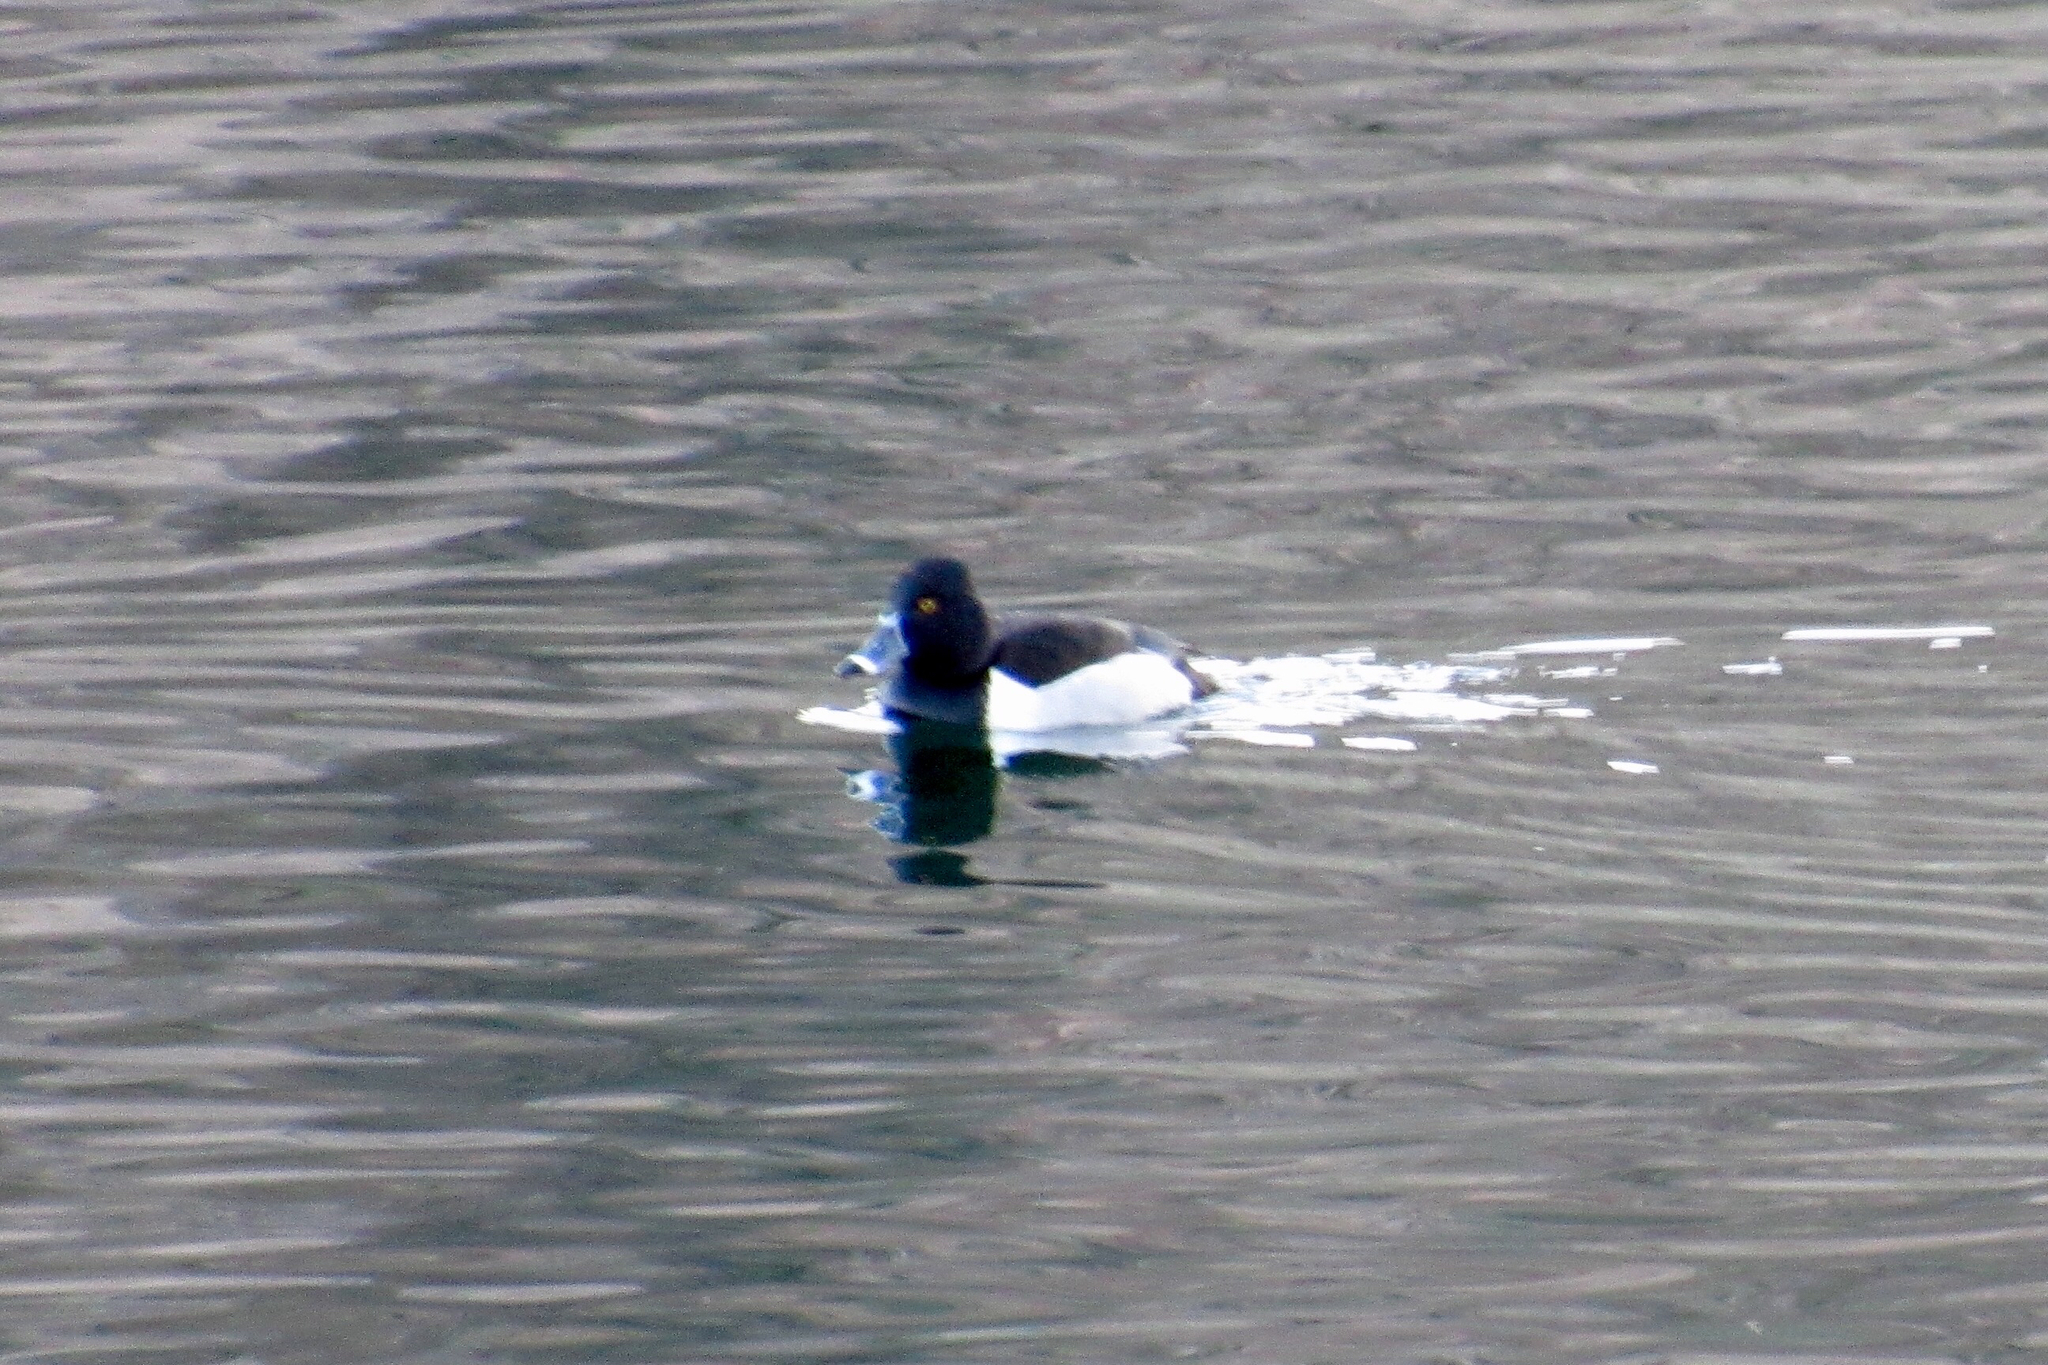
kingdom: Animalia
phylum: Chordata
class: Aves
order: Anseriformes
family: Anatidae
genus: Aythya
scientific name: Aythya collaris
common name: Ring-necked duck
